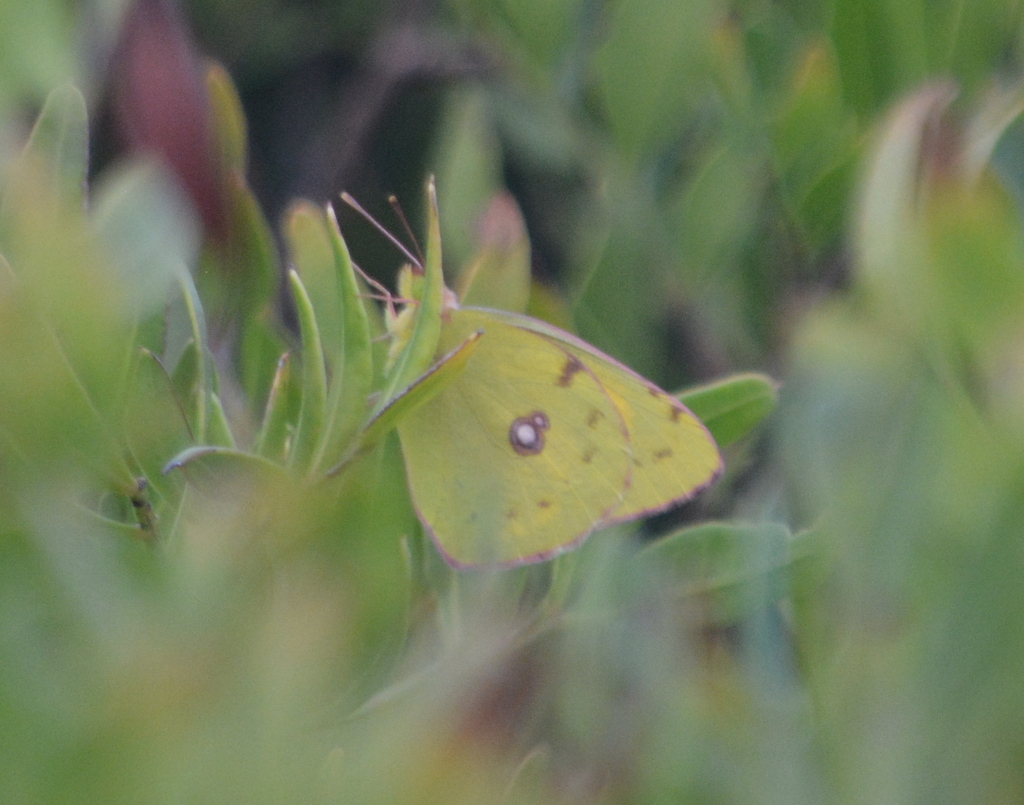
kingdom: Animalia
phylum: Arthropoda
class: Insecta
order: Lepidoptera
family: Pieridae
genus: Colias
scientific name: Colias croceus
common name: Clouded yellow
